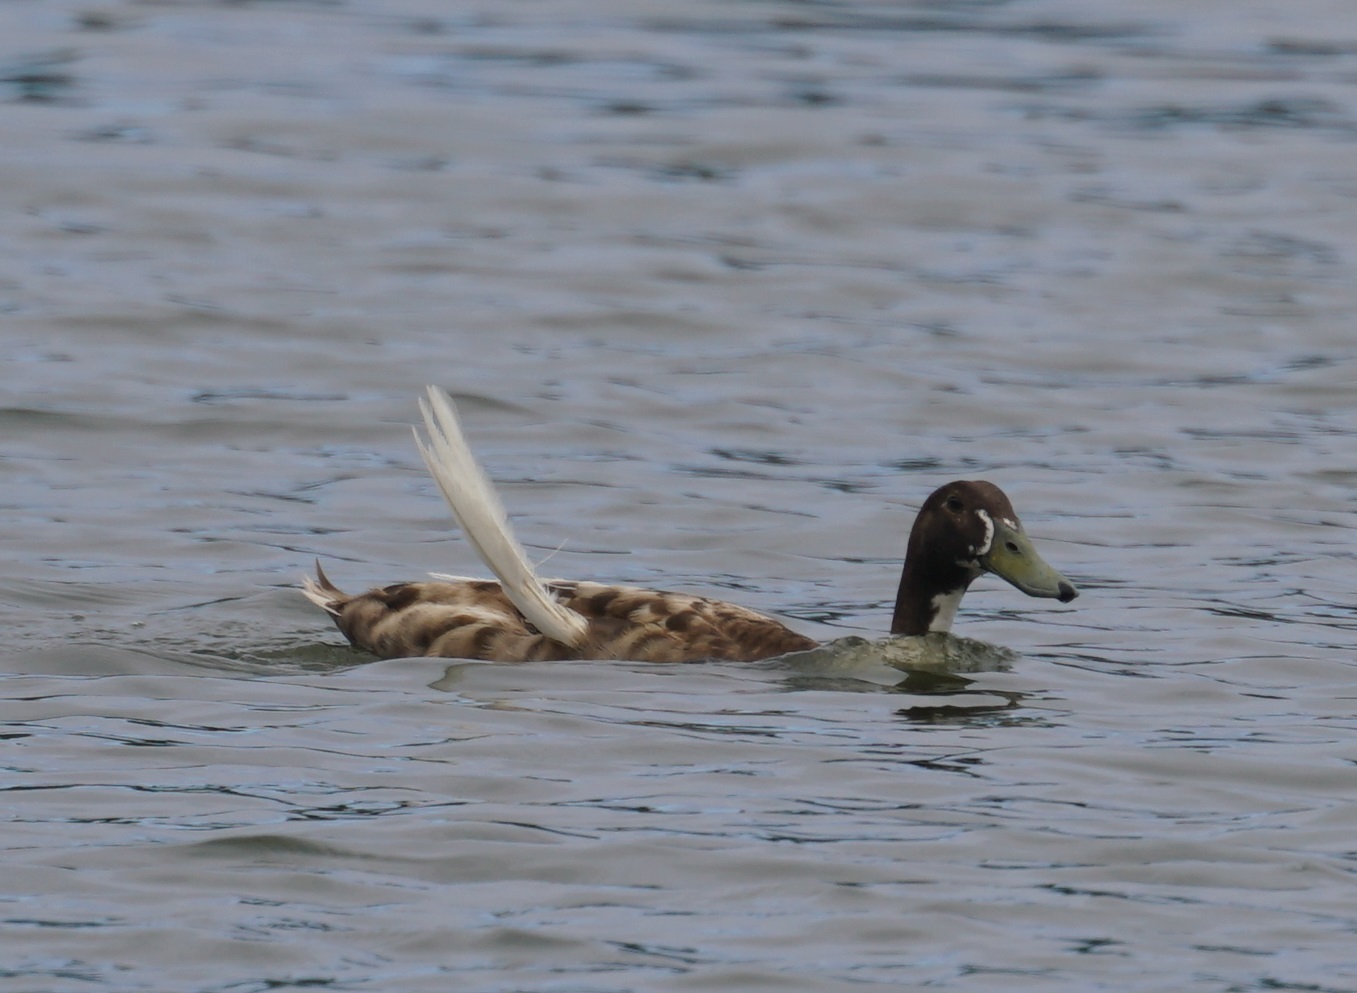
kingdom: Animalia
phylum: Chordata
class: Aves
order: Anseriformes
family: Anatidae
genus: Anas
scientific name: Anas platyrhynchos
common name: Mallard
